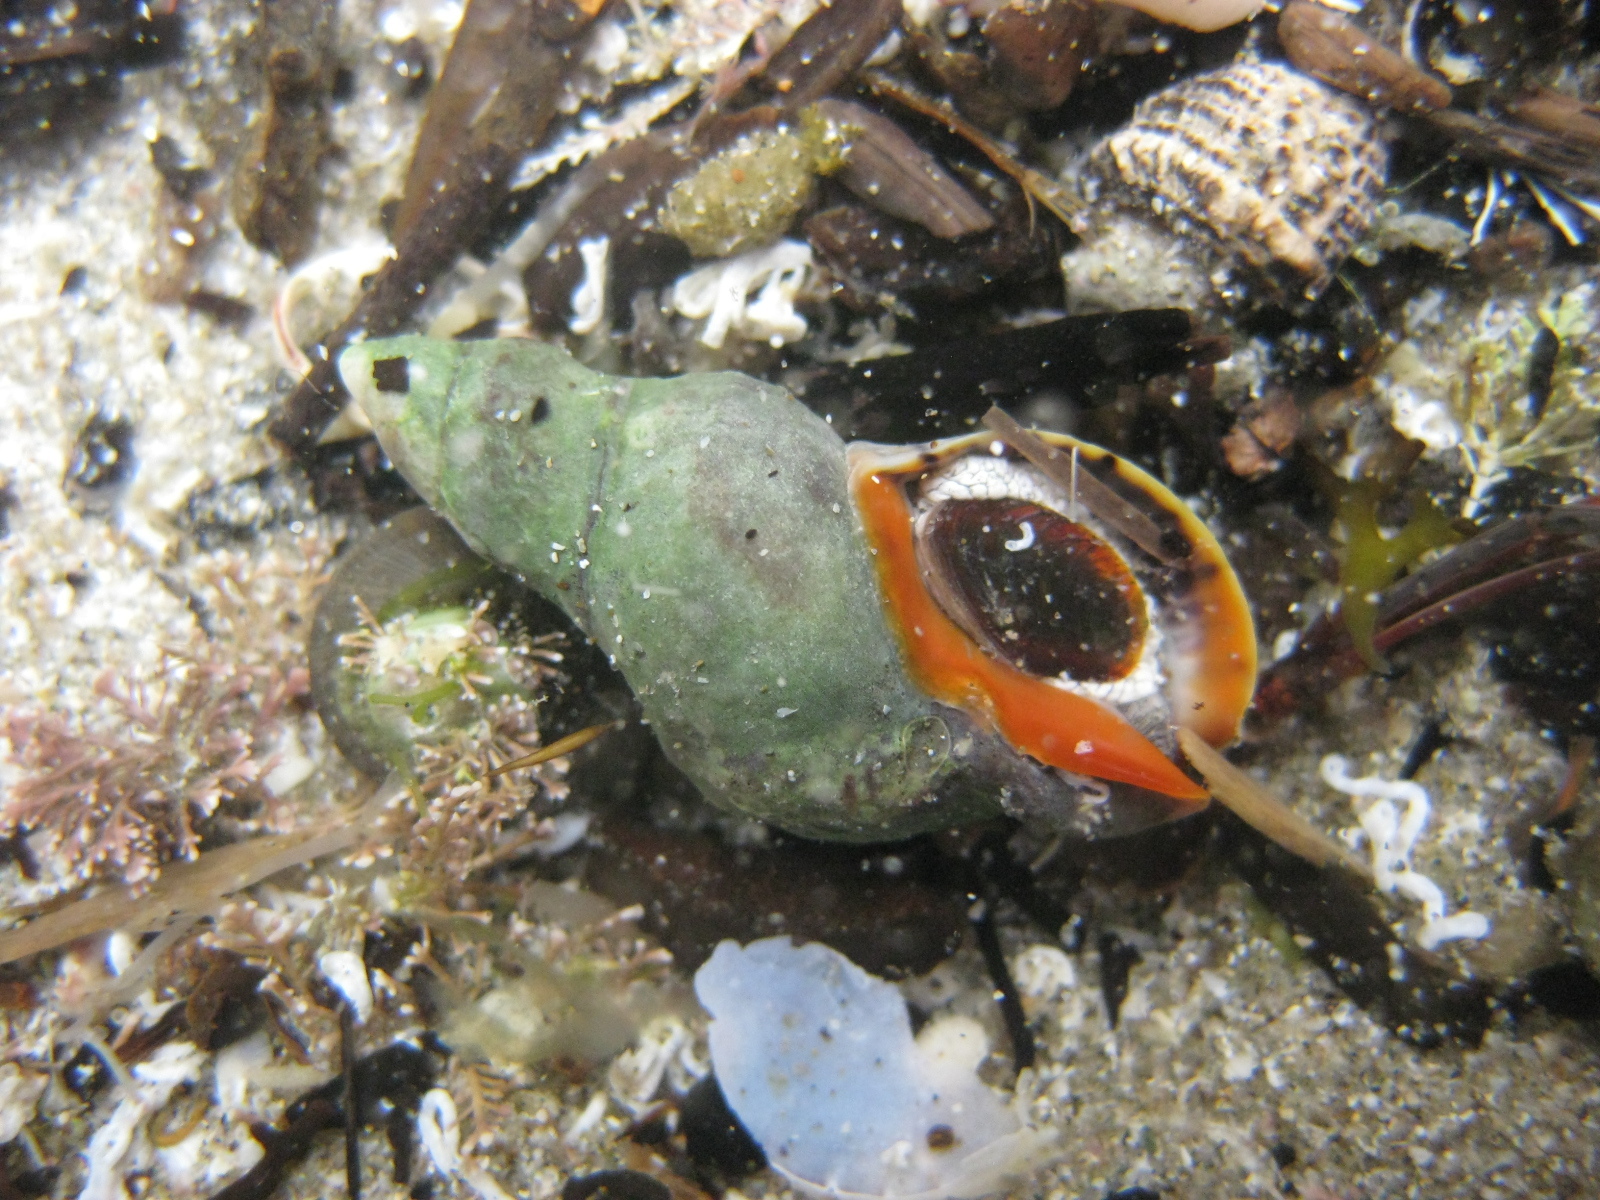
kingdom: Animalia
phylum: Mollusca
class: Gastropoda
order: Neogastropoda
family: Cominellidae
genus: Cominella
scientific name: Cominella virgata
